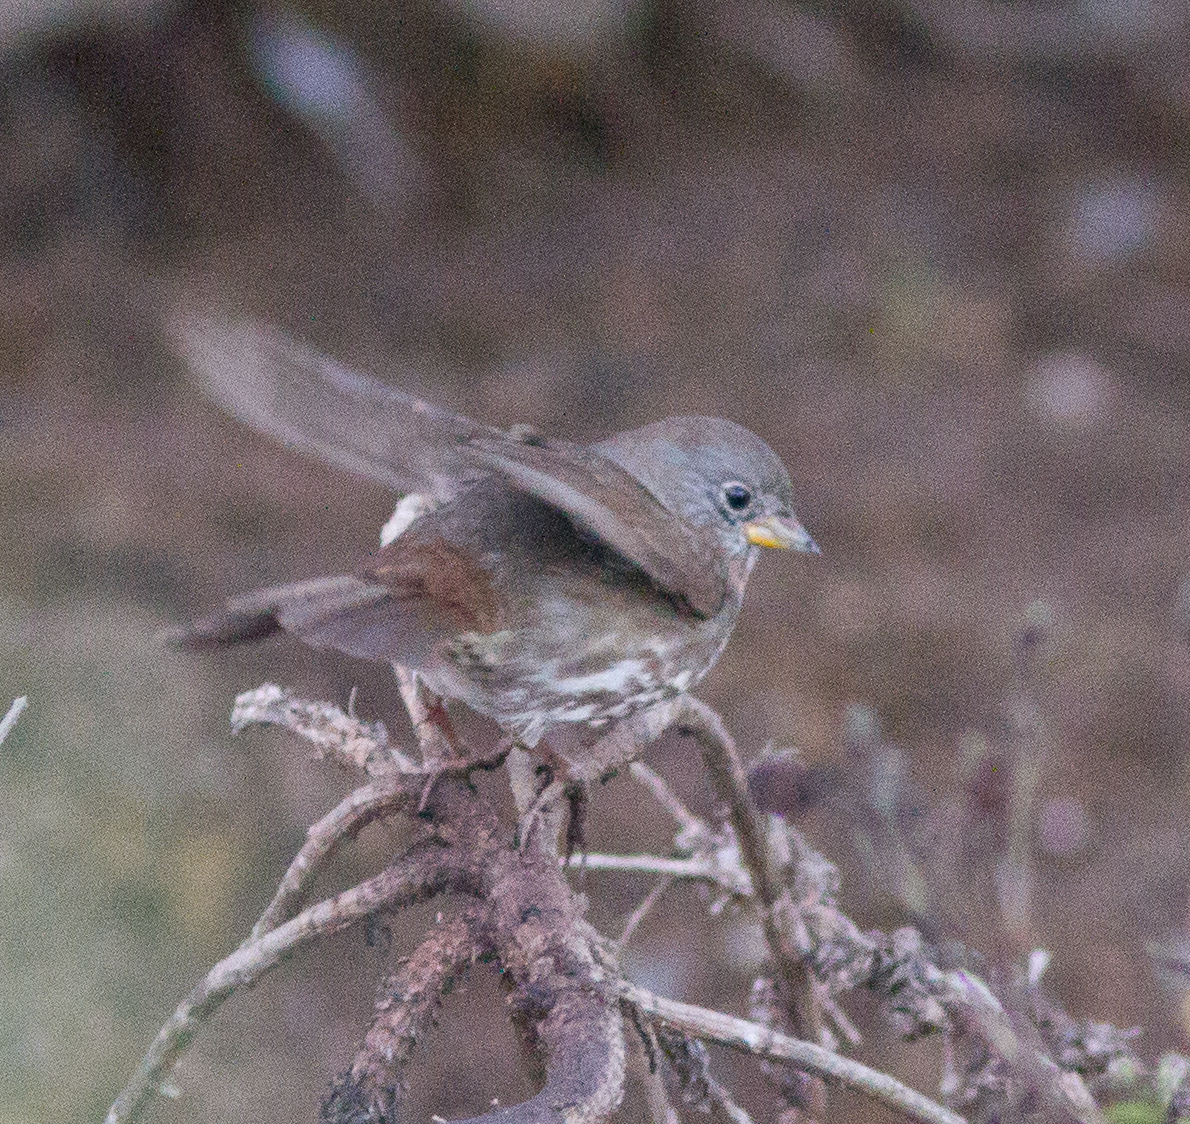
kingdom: Animalia
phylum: Chordata
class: Aves
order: Passeriformes
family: Passerellidae
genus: Passerella
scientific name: Passerella iliaca
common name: Fox sparrow
